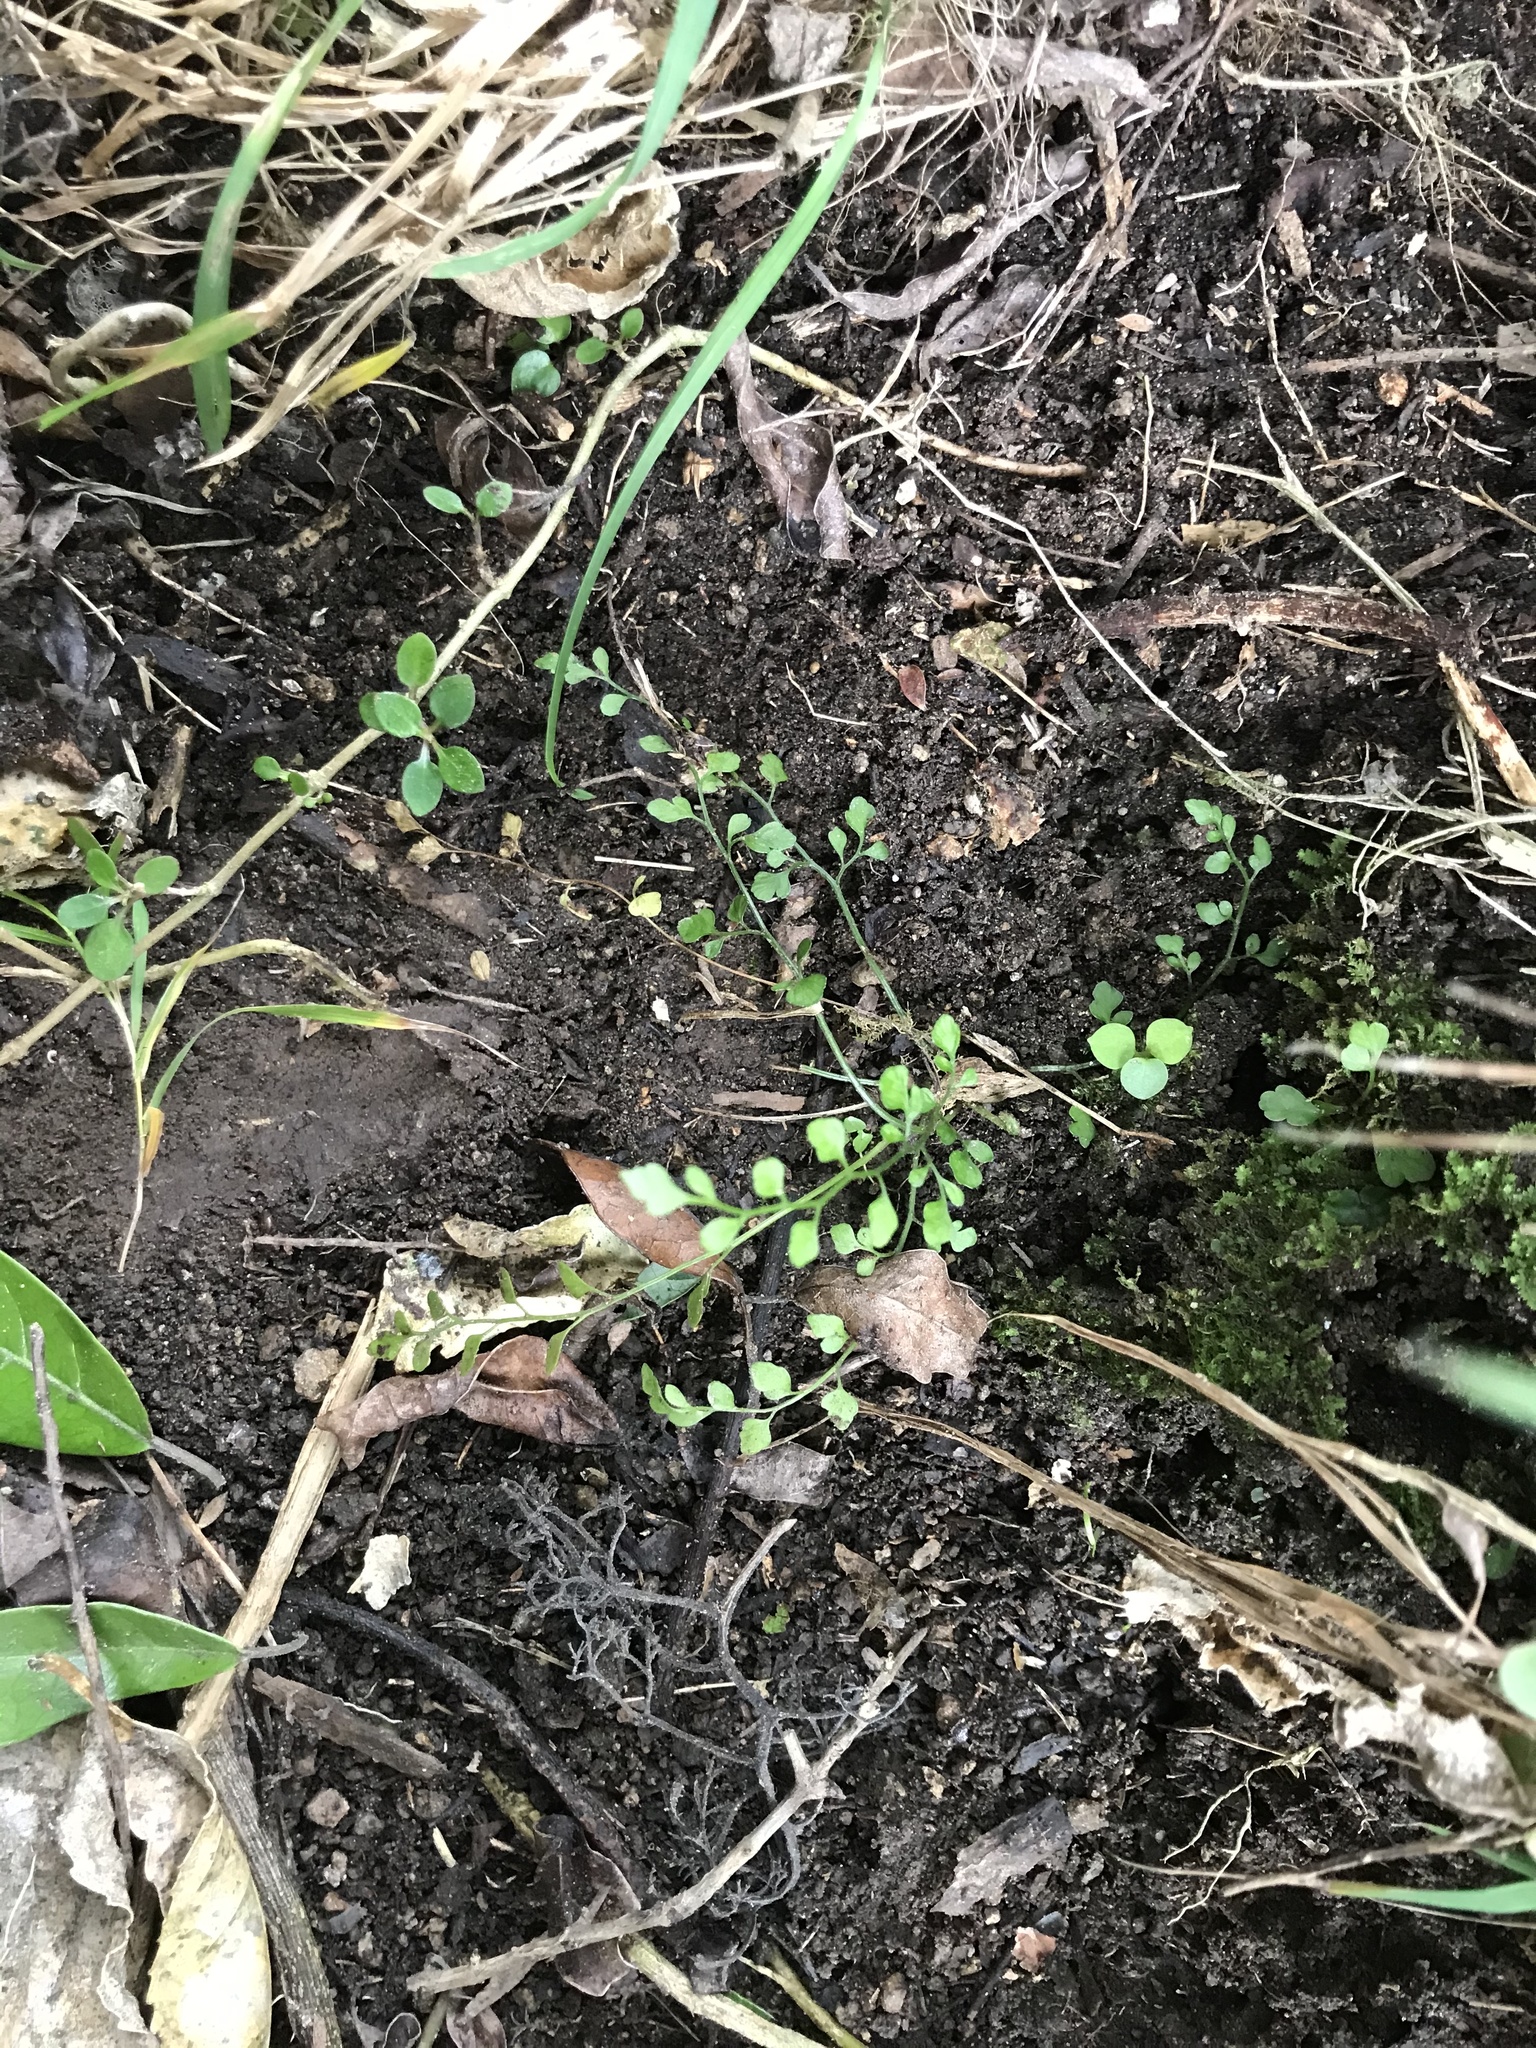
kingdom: Plantae
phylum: Tracheophyta
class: Polypodiopsida
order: Polypodiales
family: Aspleniaceae
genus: Asplenium
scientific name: Asplenium hookerianum
